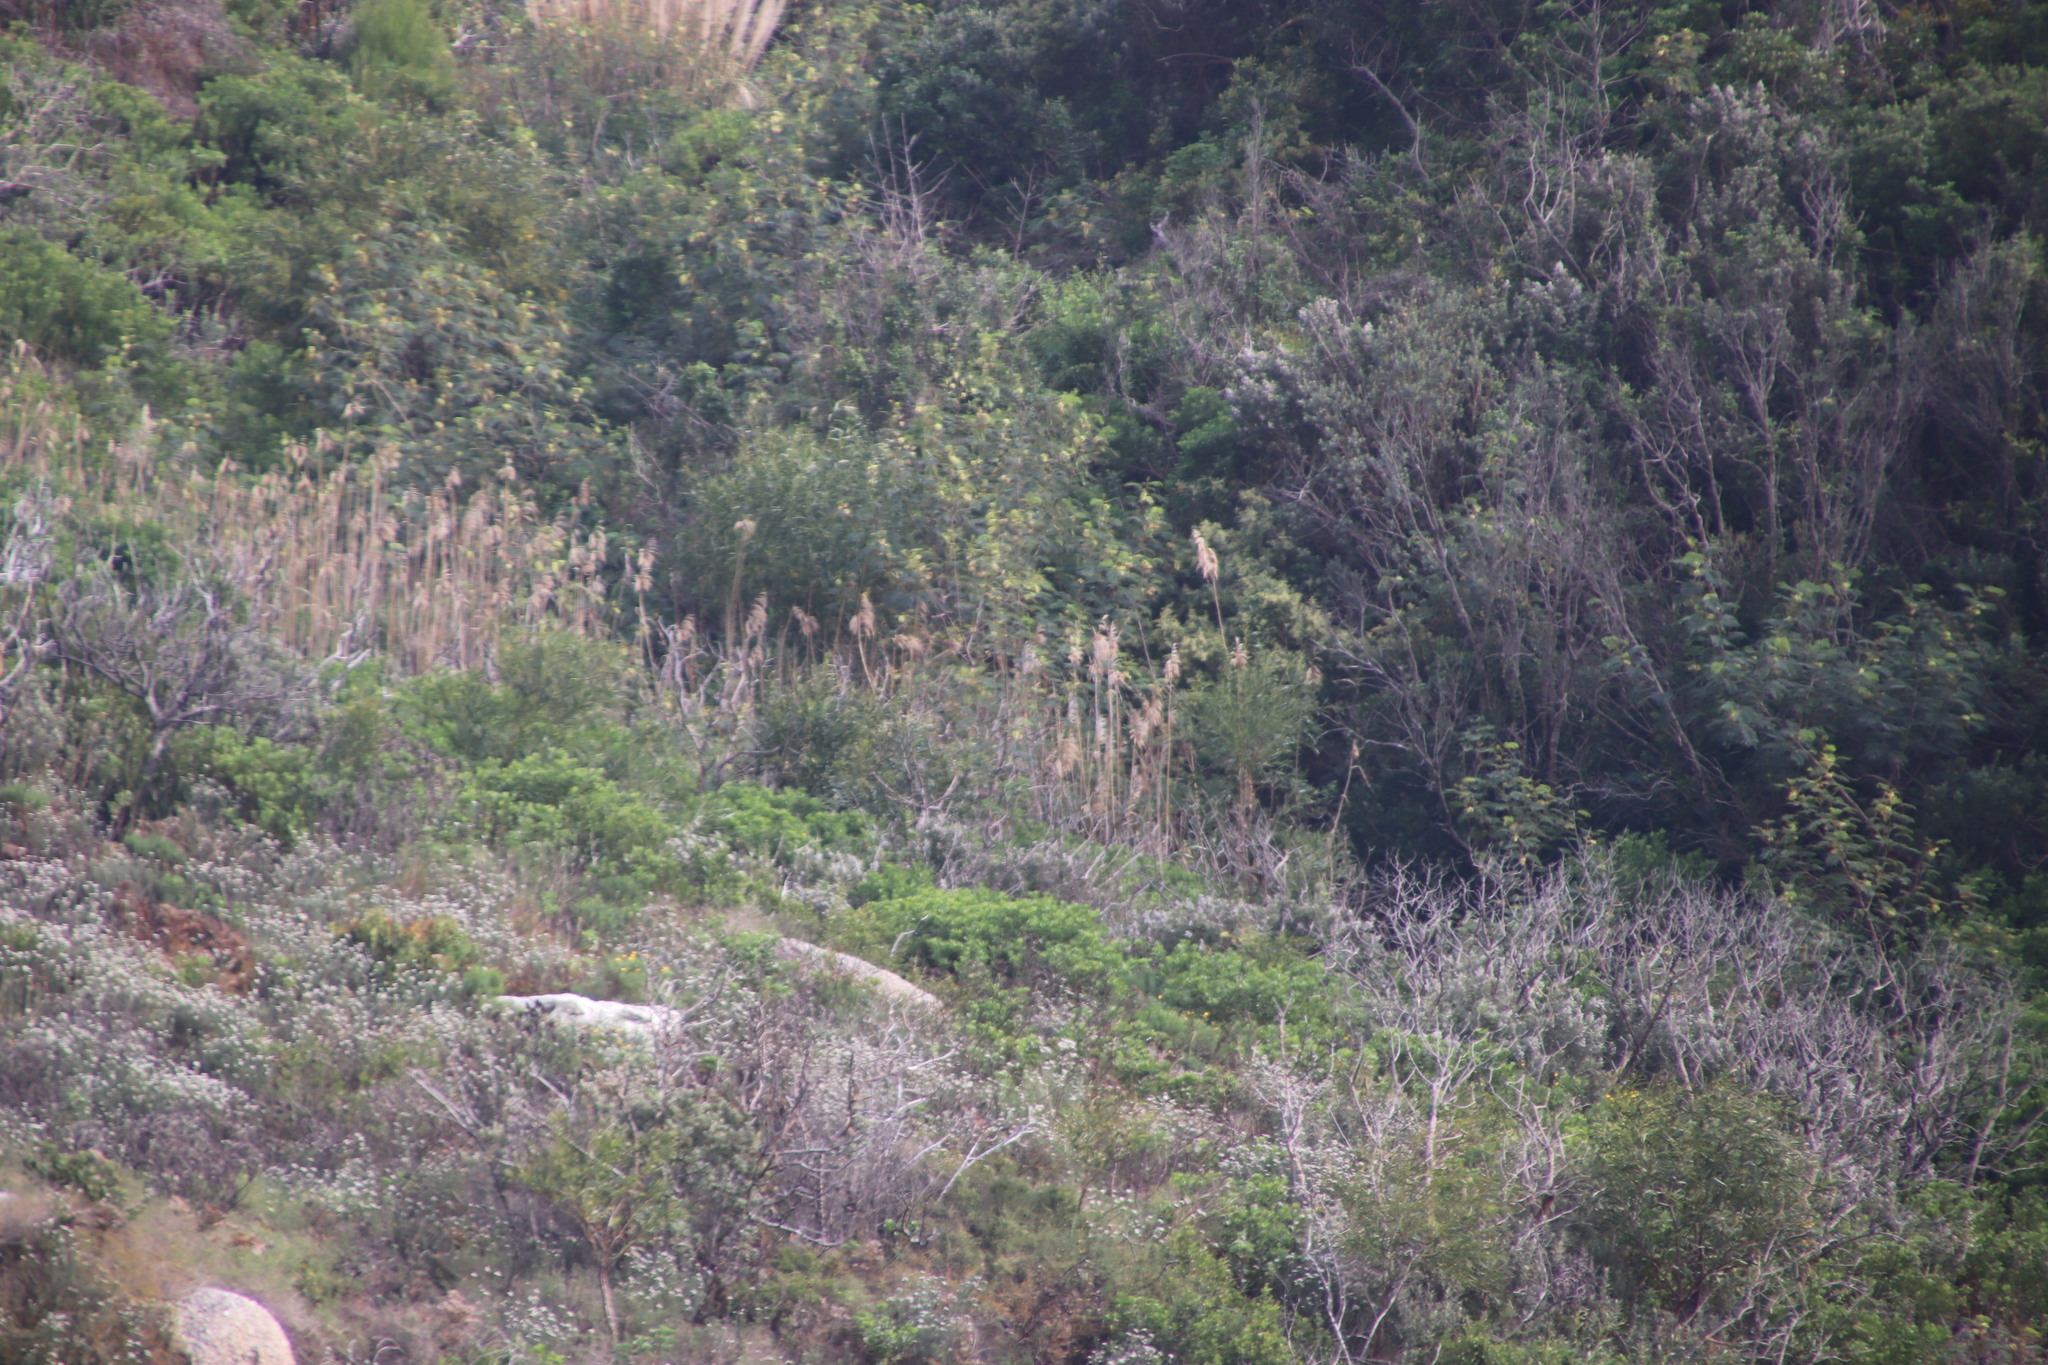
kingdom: Plantae
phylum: Tracheophyta
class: Liliopsida
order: Poales
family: Poaceae
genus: Phragmites
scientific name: Phragmites australis
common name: Common reed
